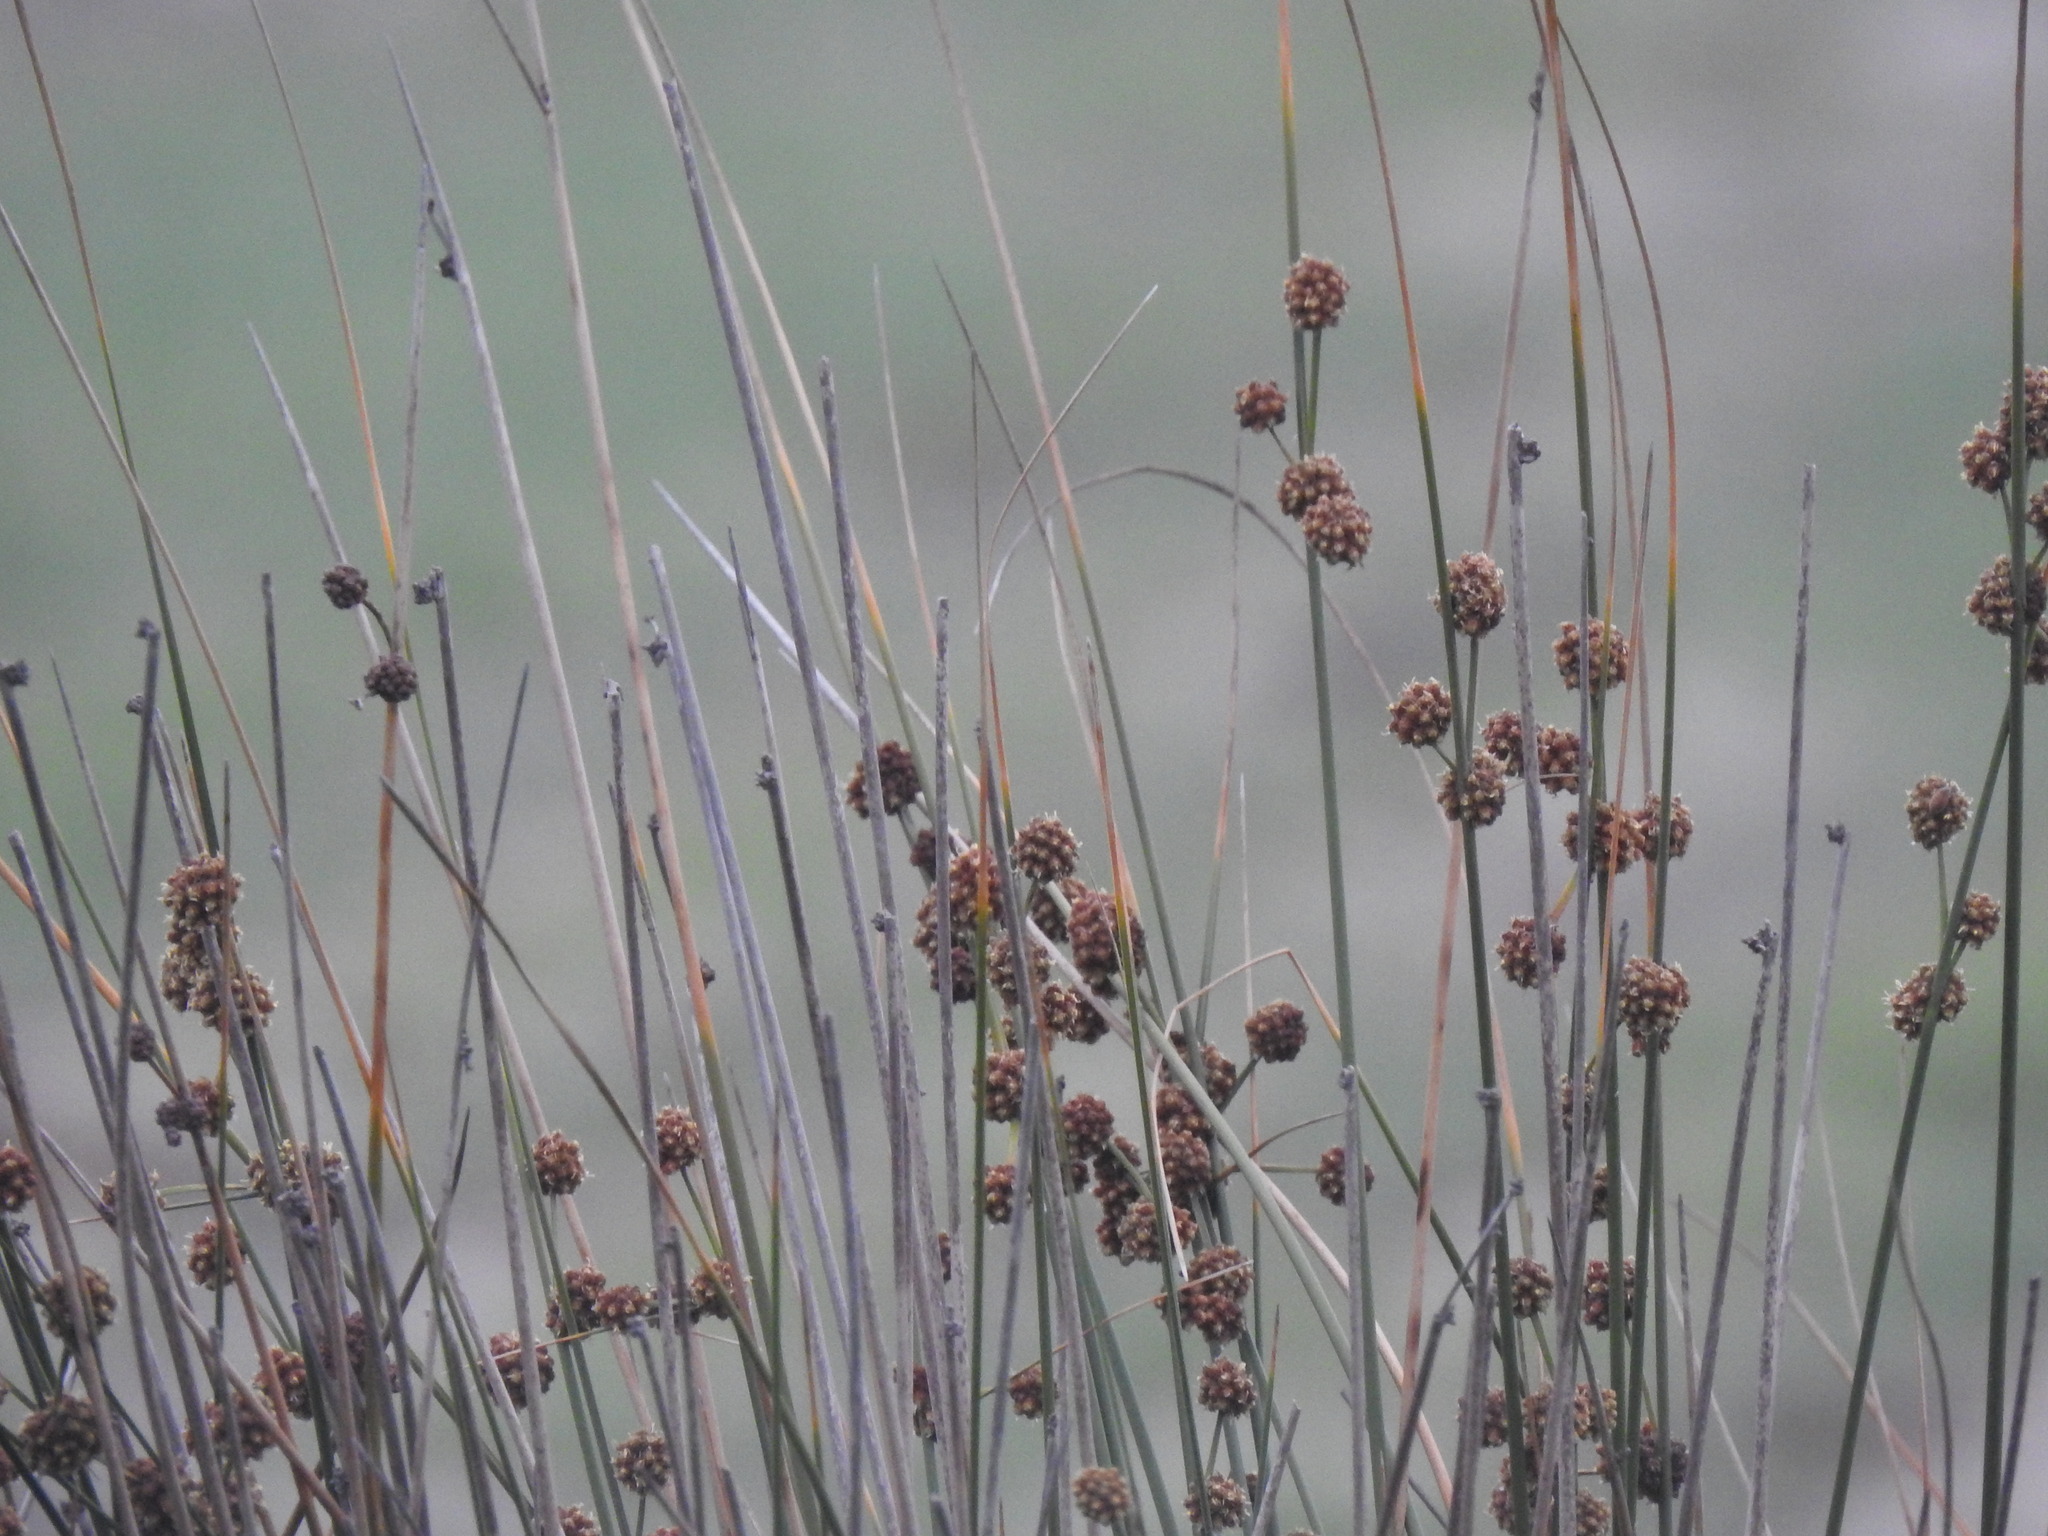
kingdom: Plantae
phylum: Tracheophyta
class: Liliopsida
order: Poales
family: Cyperaceae
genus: Scirpoides
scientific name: Scirpoides holoschoenus
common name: Round-headed club-rush
